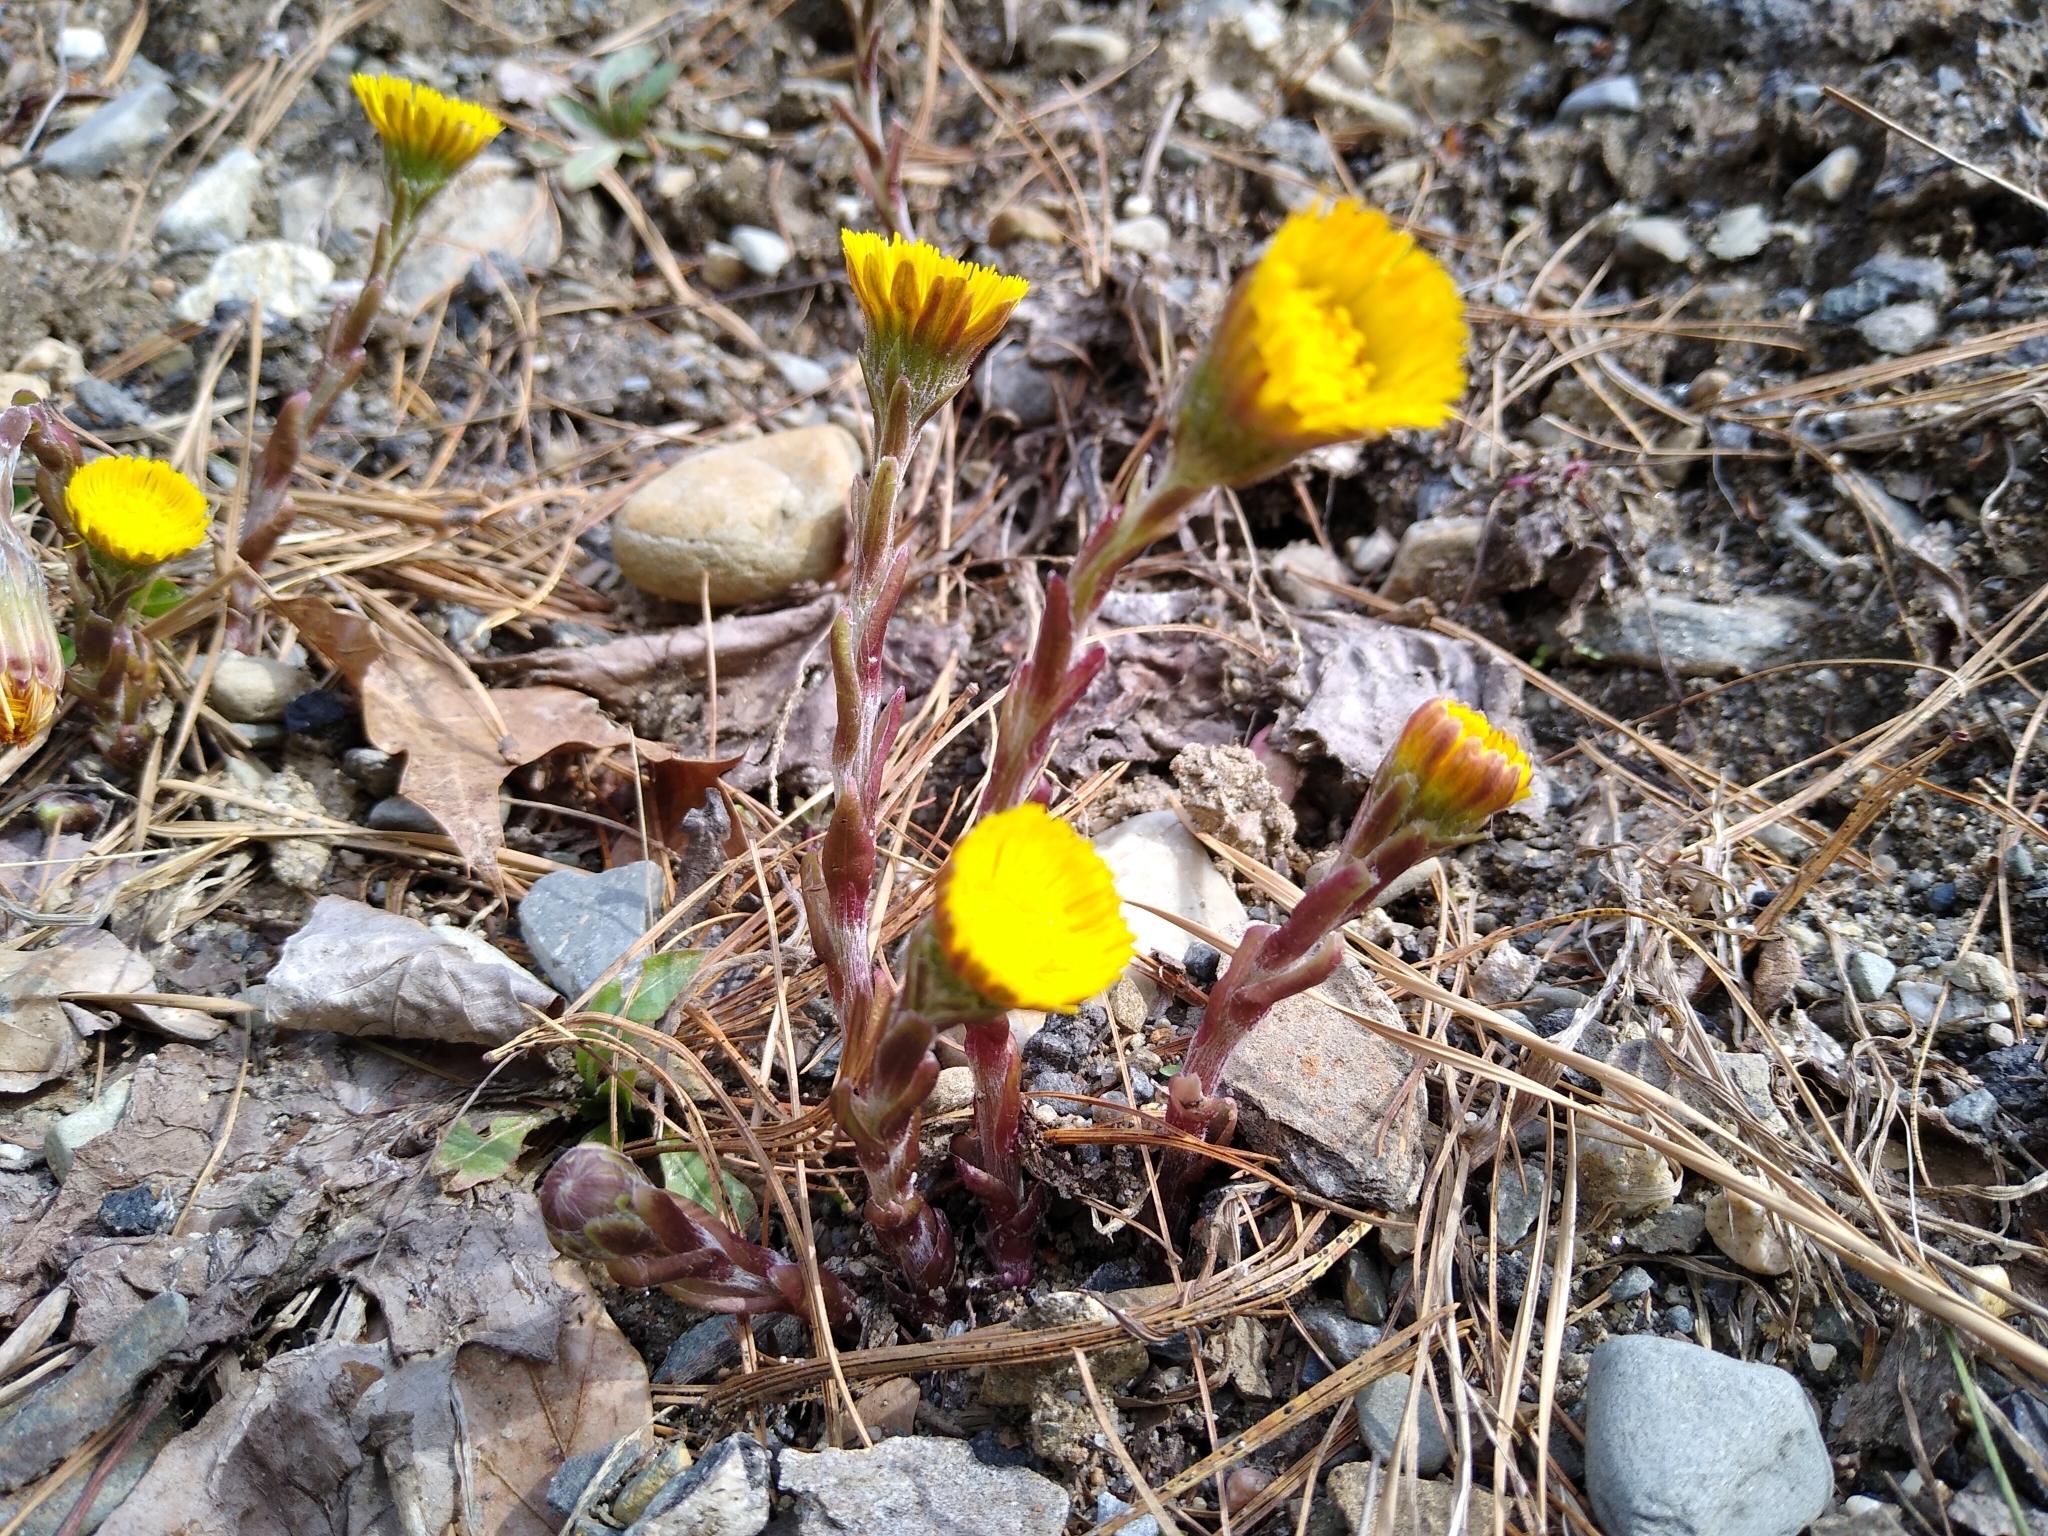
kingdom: Plantae
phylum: Tracheophyta
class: Magnoliopsida
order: Asterales
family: Asteraceae
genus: Tussilago
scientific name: Tussilago farfara
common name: Coltsfoot
